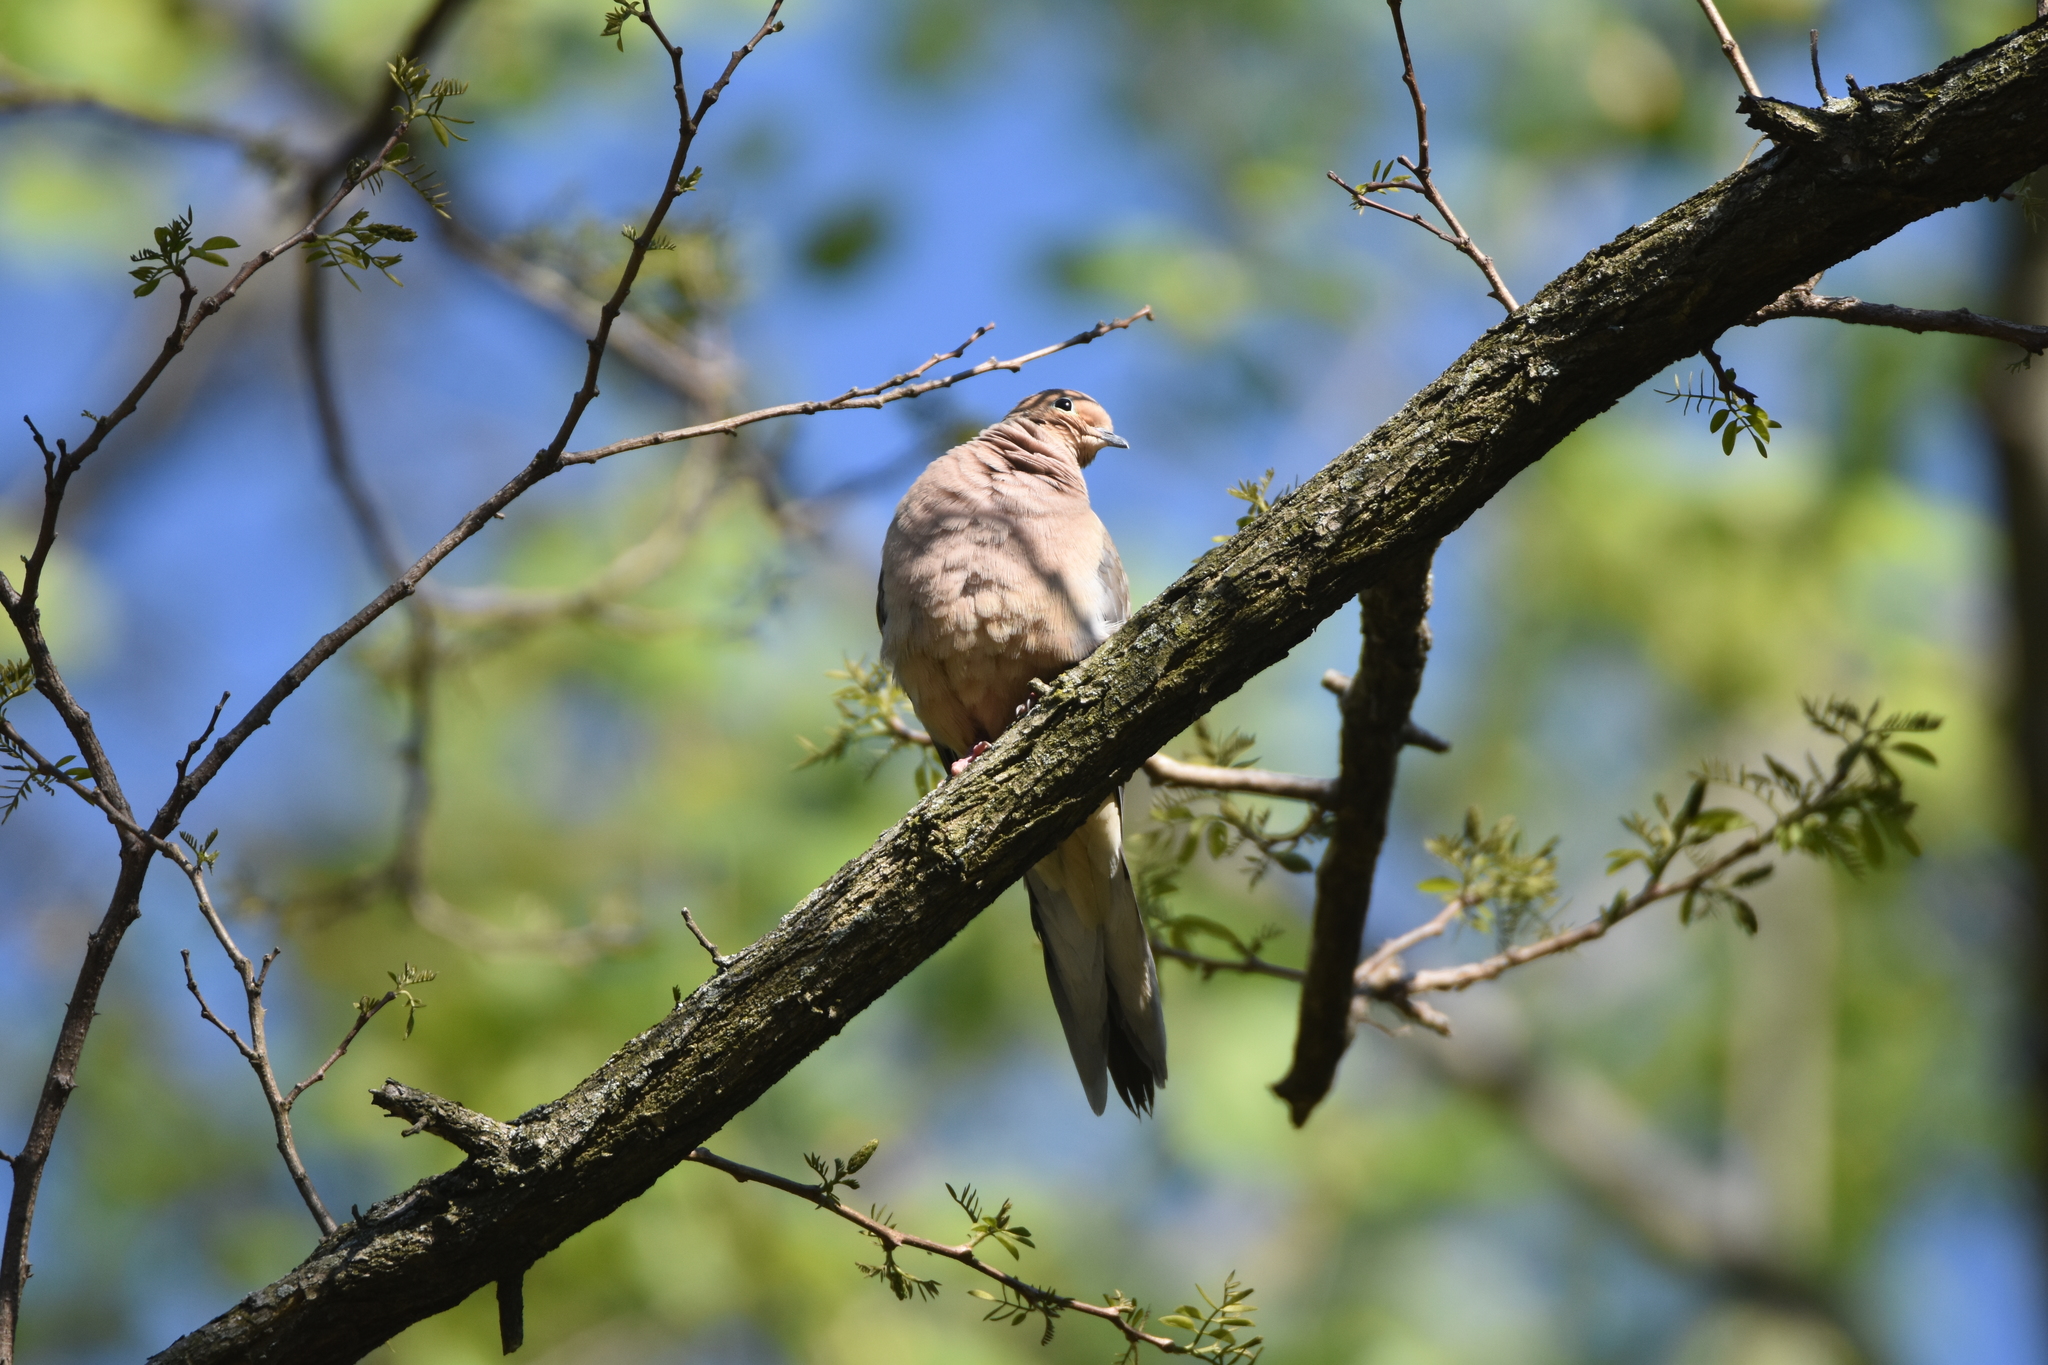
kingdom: Animalia
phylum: Chordata
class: Aves
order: Columbiformes
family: Columbidae
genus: Zenaida
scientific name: Zenaida macroura
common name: Mourning dove
